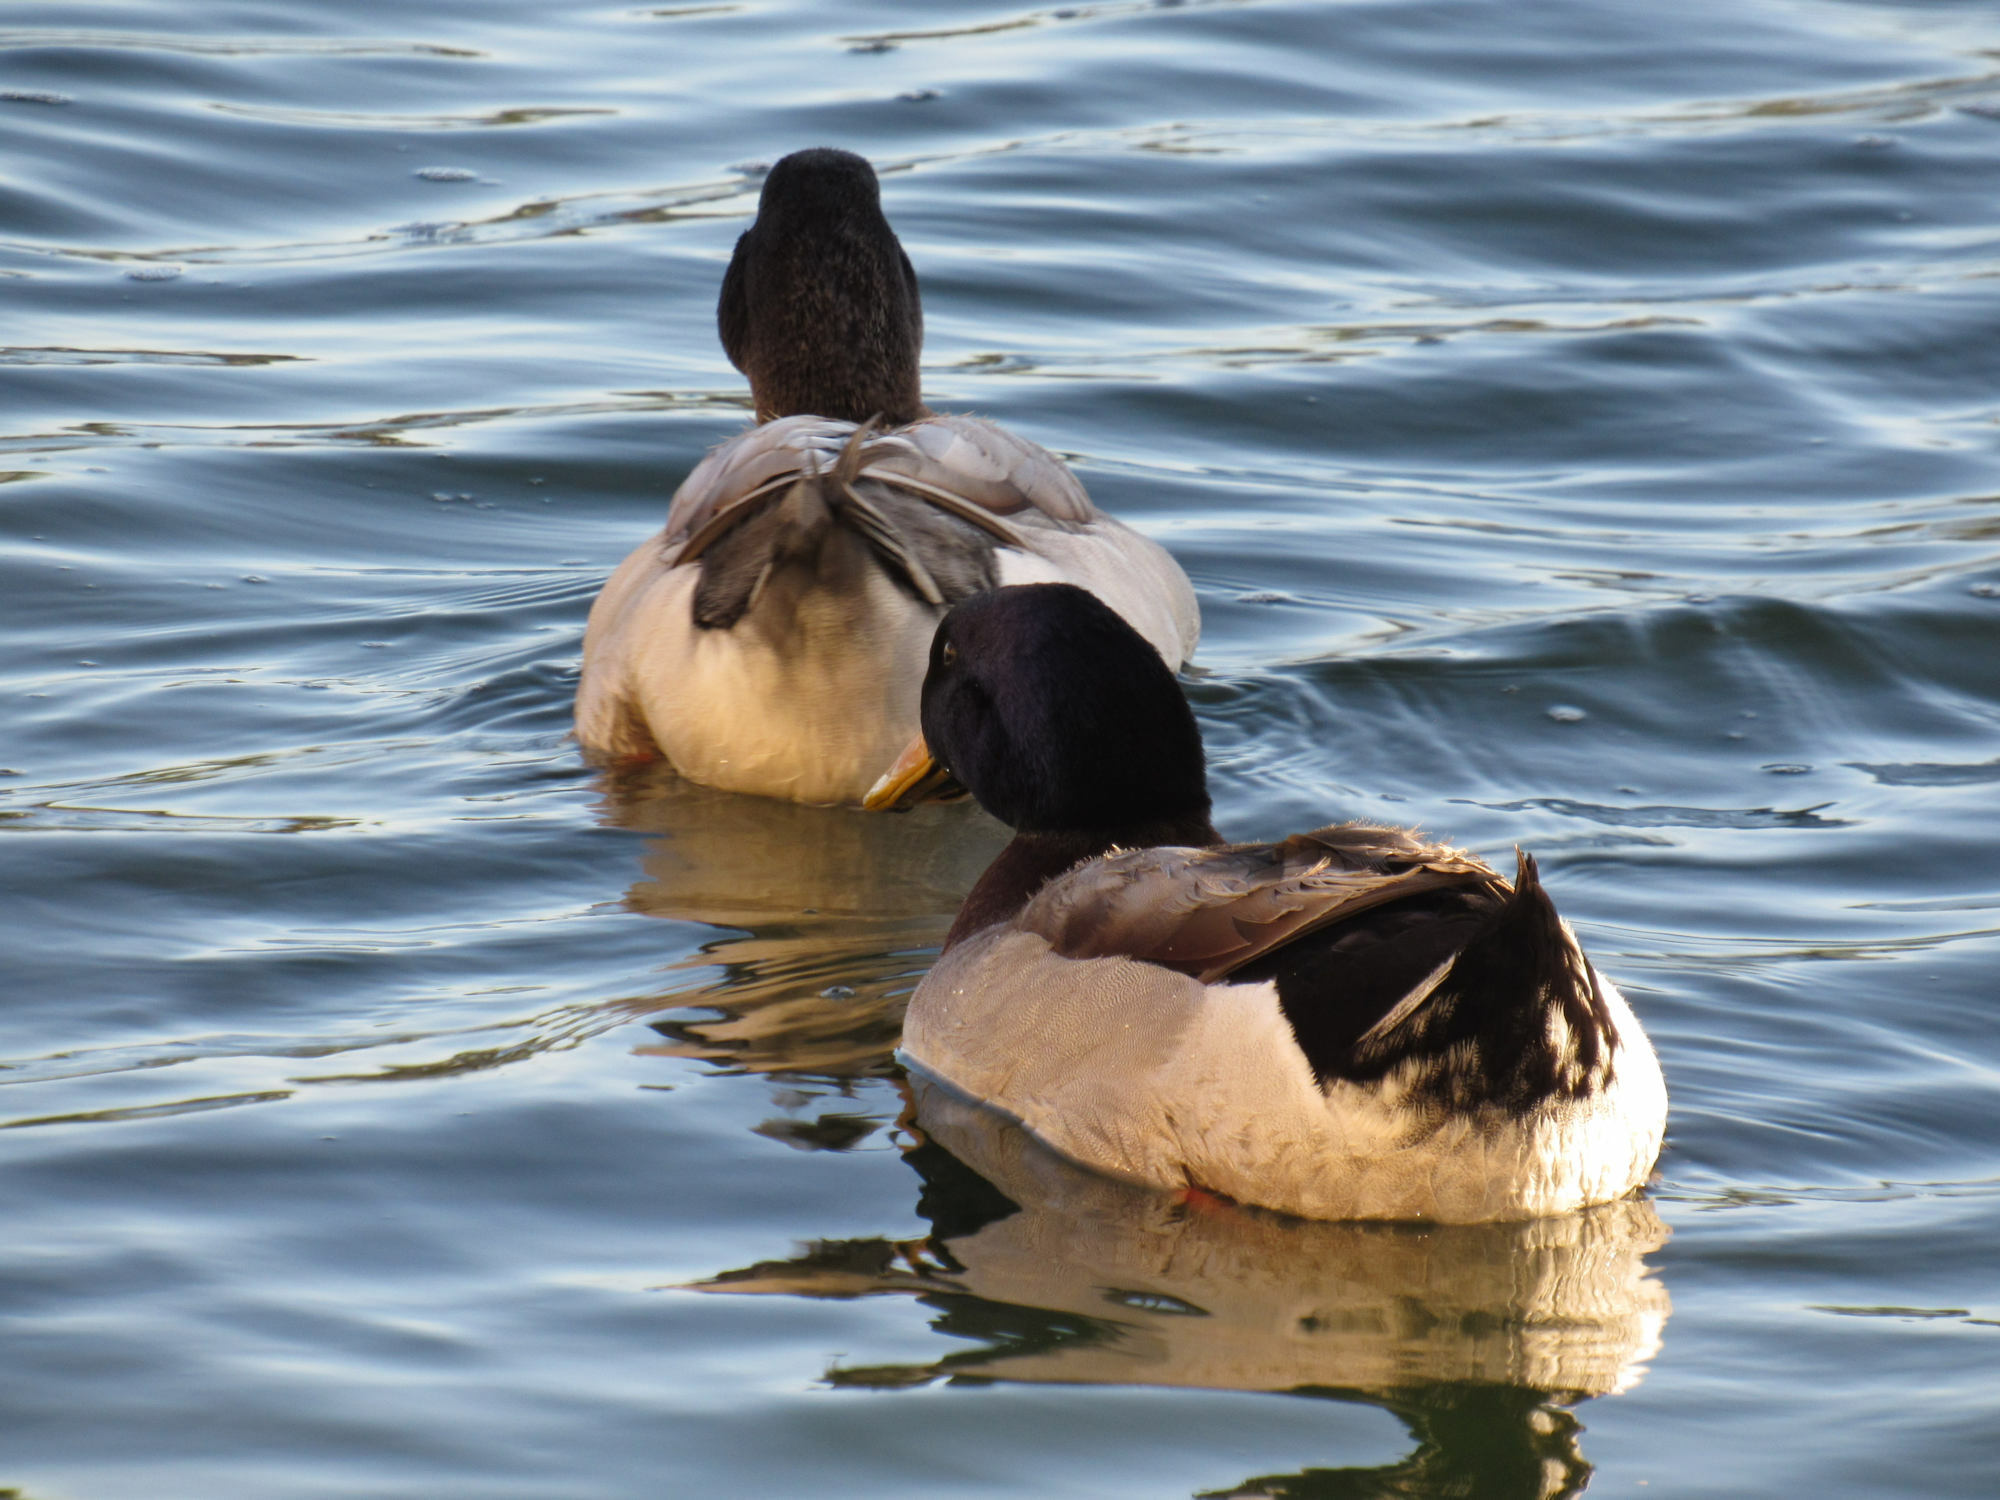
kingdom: Animalia
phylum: Chordata
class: Aves
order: Anseriformes
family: Anatidae
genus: Anas
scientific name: Anas platyrhynchos
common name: Mallard
